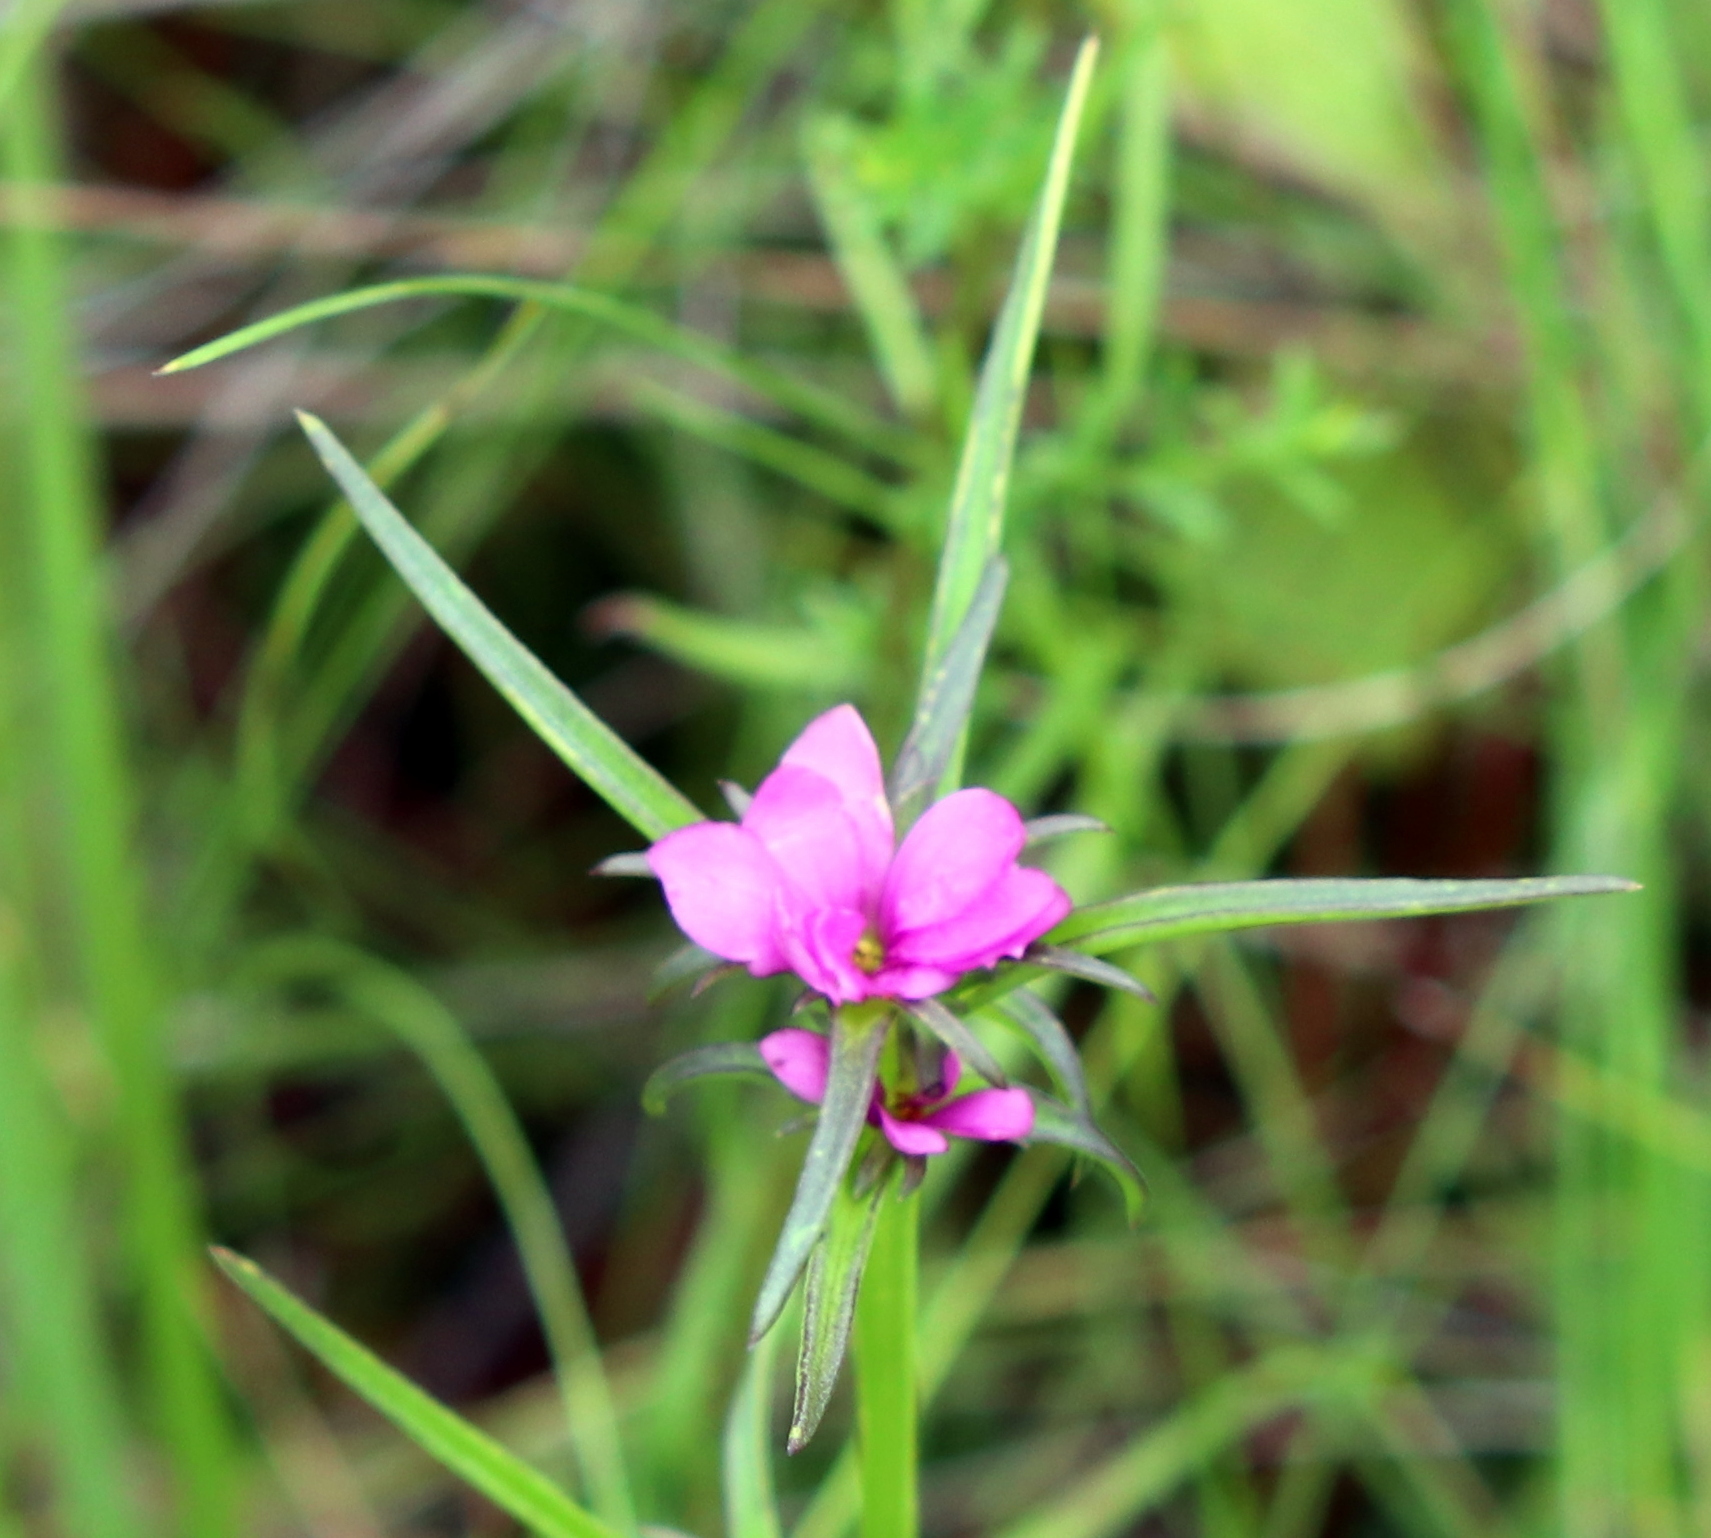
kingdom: Plantae
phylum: Tracheophyta
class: Magnoliopsida
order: Gentianales
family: Gentianaceae
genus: Sabatia
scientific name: Sabatia gentianoides
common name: Pinewoods rose-gentian
